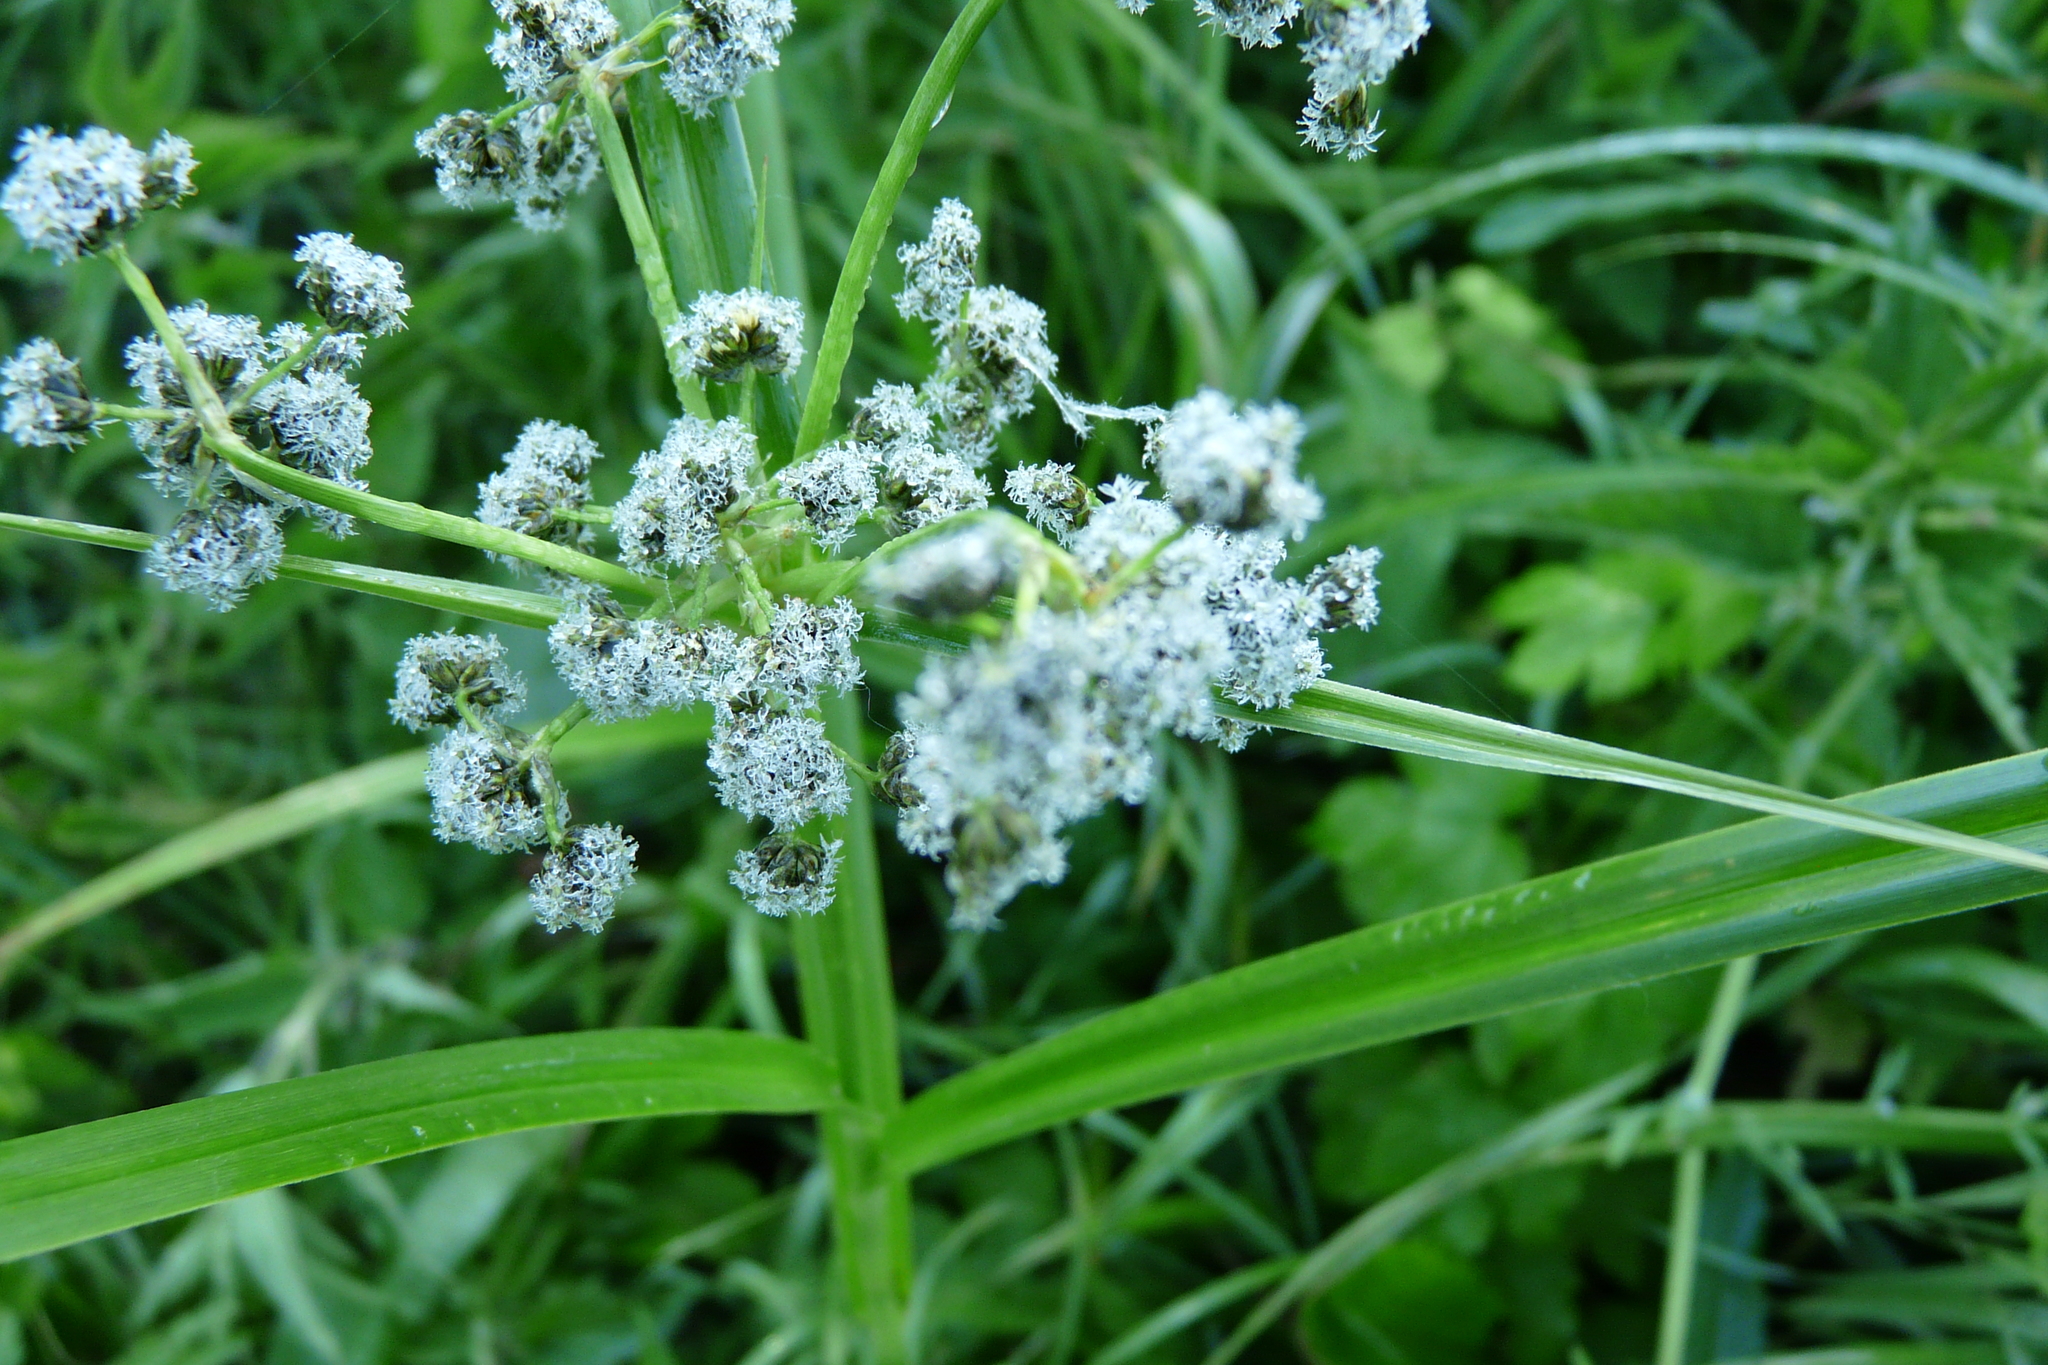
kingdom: Plantae
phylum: Tracheophyta
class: Liliopsida
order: Poales
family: Cyperaceae
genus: Scirpus
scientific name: Scirpus sylvaticus
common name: Wood club-rush
